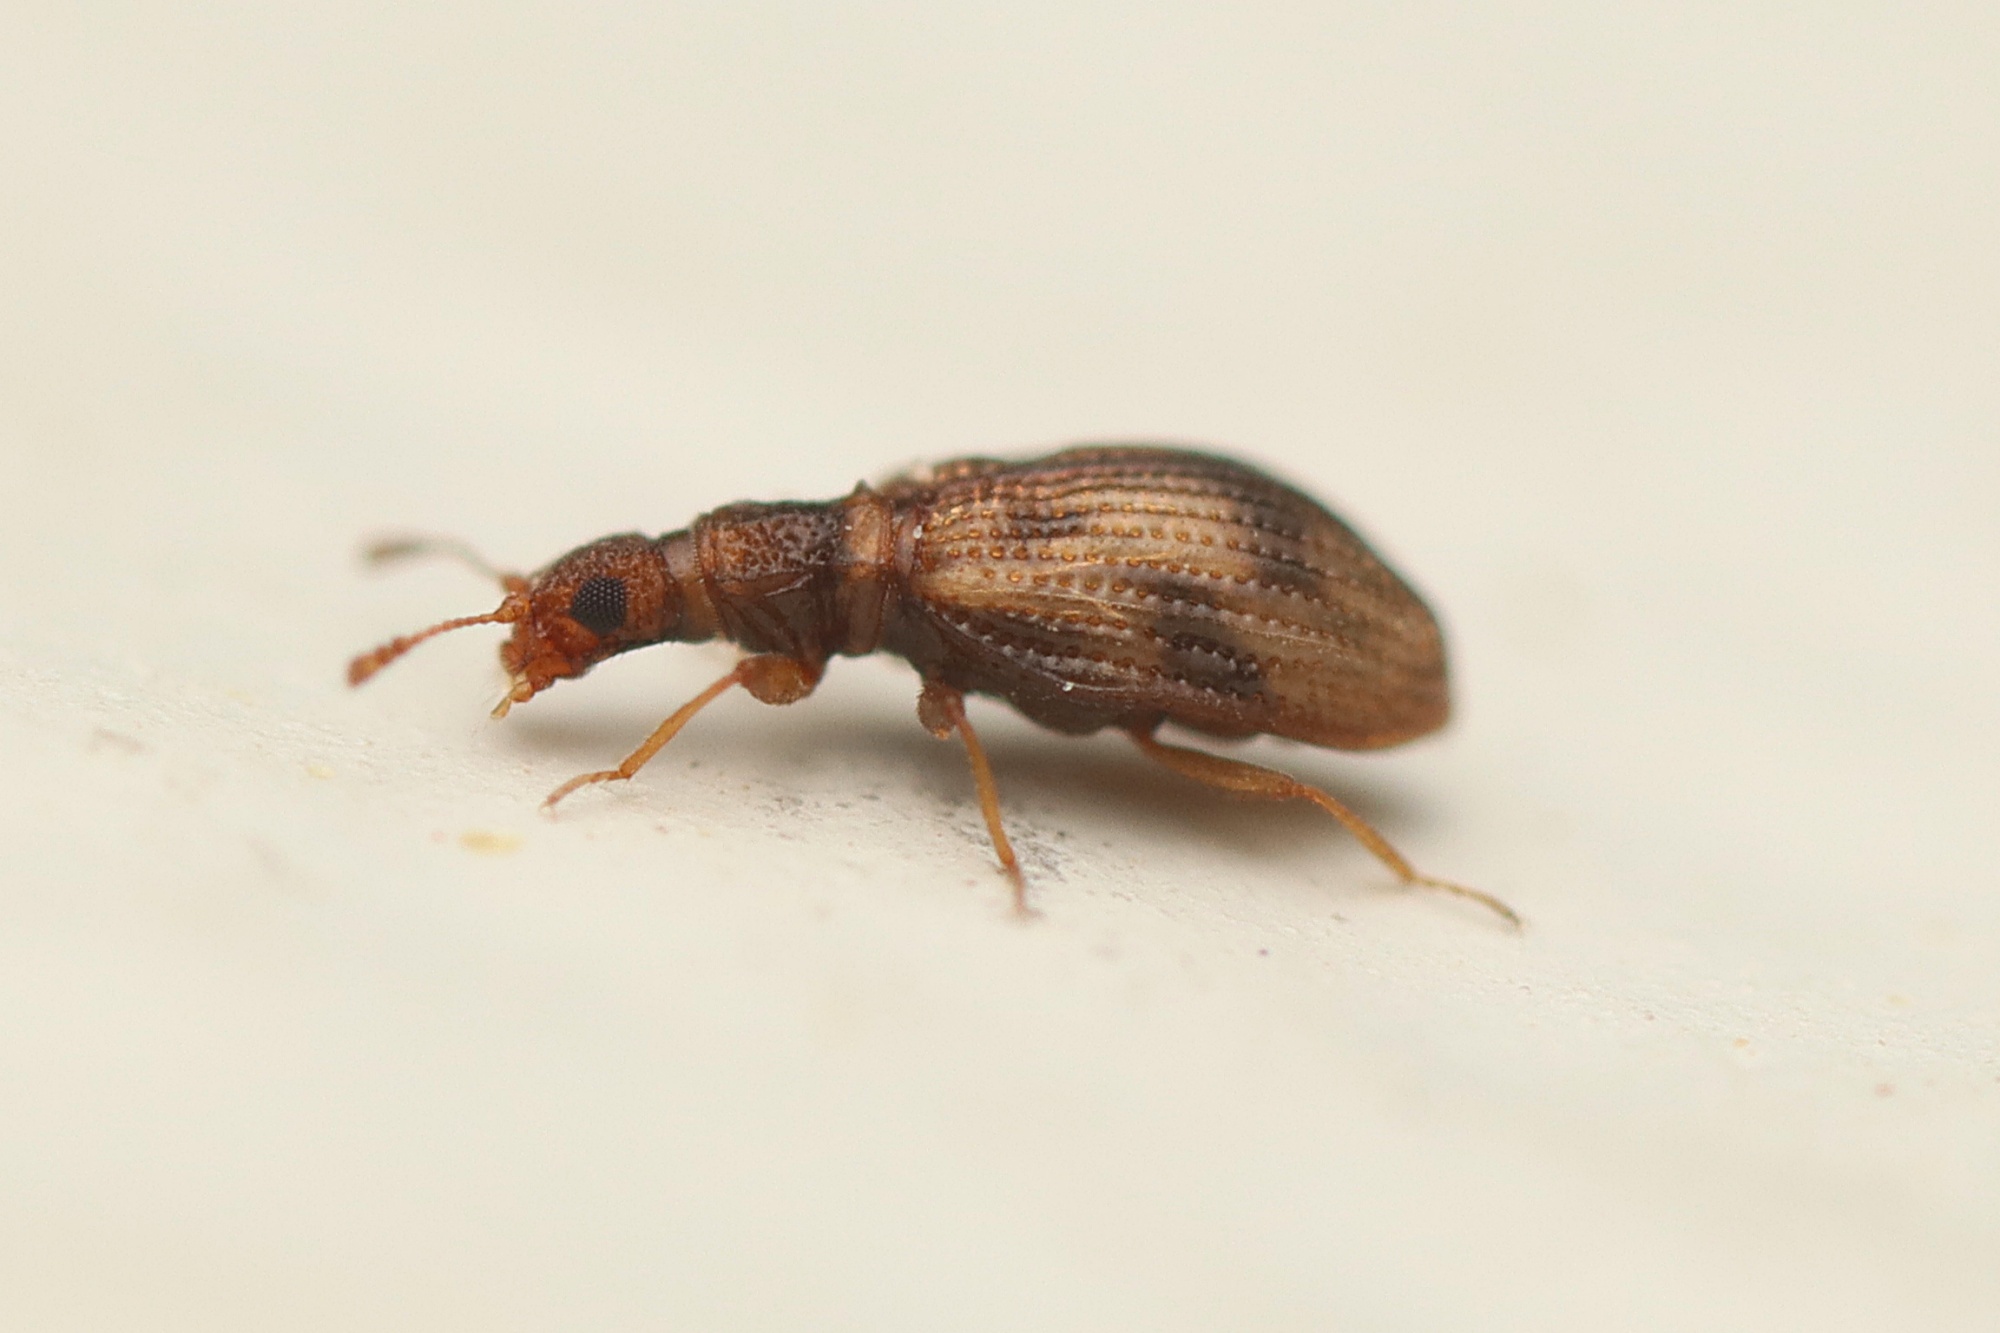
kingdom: Animalia
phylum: Arthropoda
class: Insecta
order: Coleoptera
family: Latridiidae
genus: Cartodere
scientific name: Cartodere bifasciata
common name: Plaster beetle
